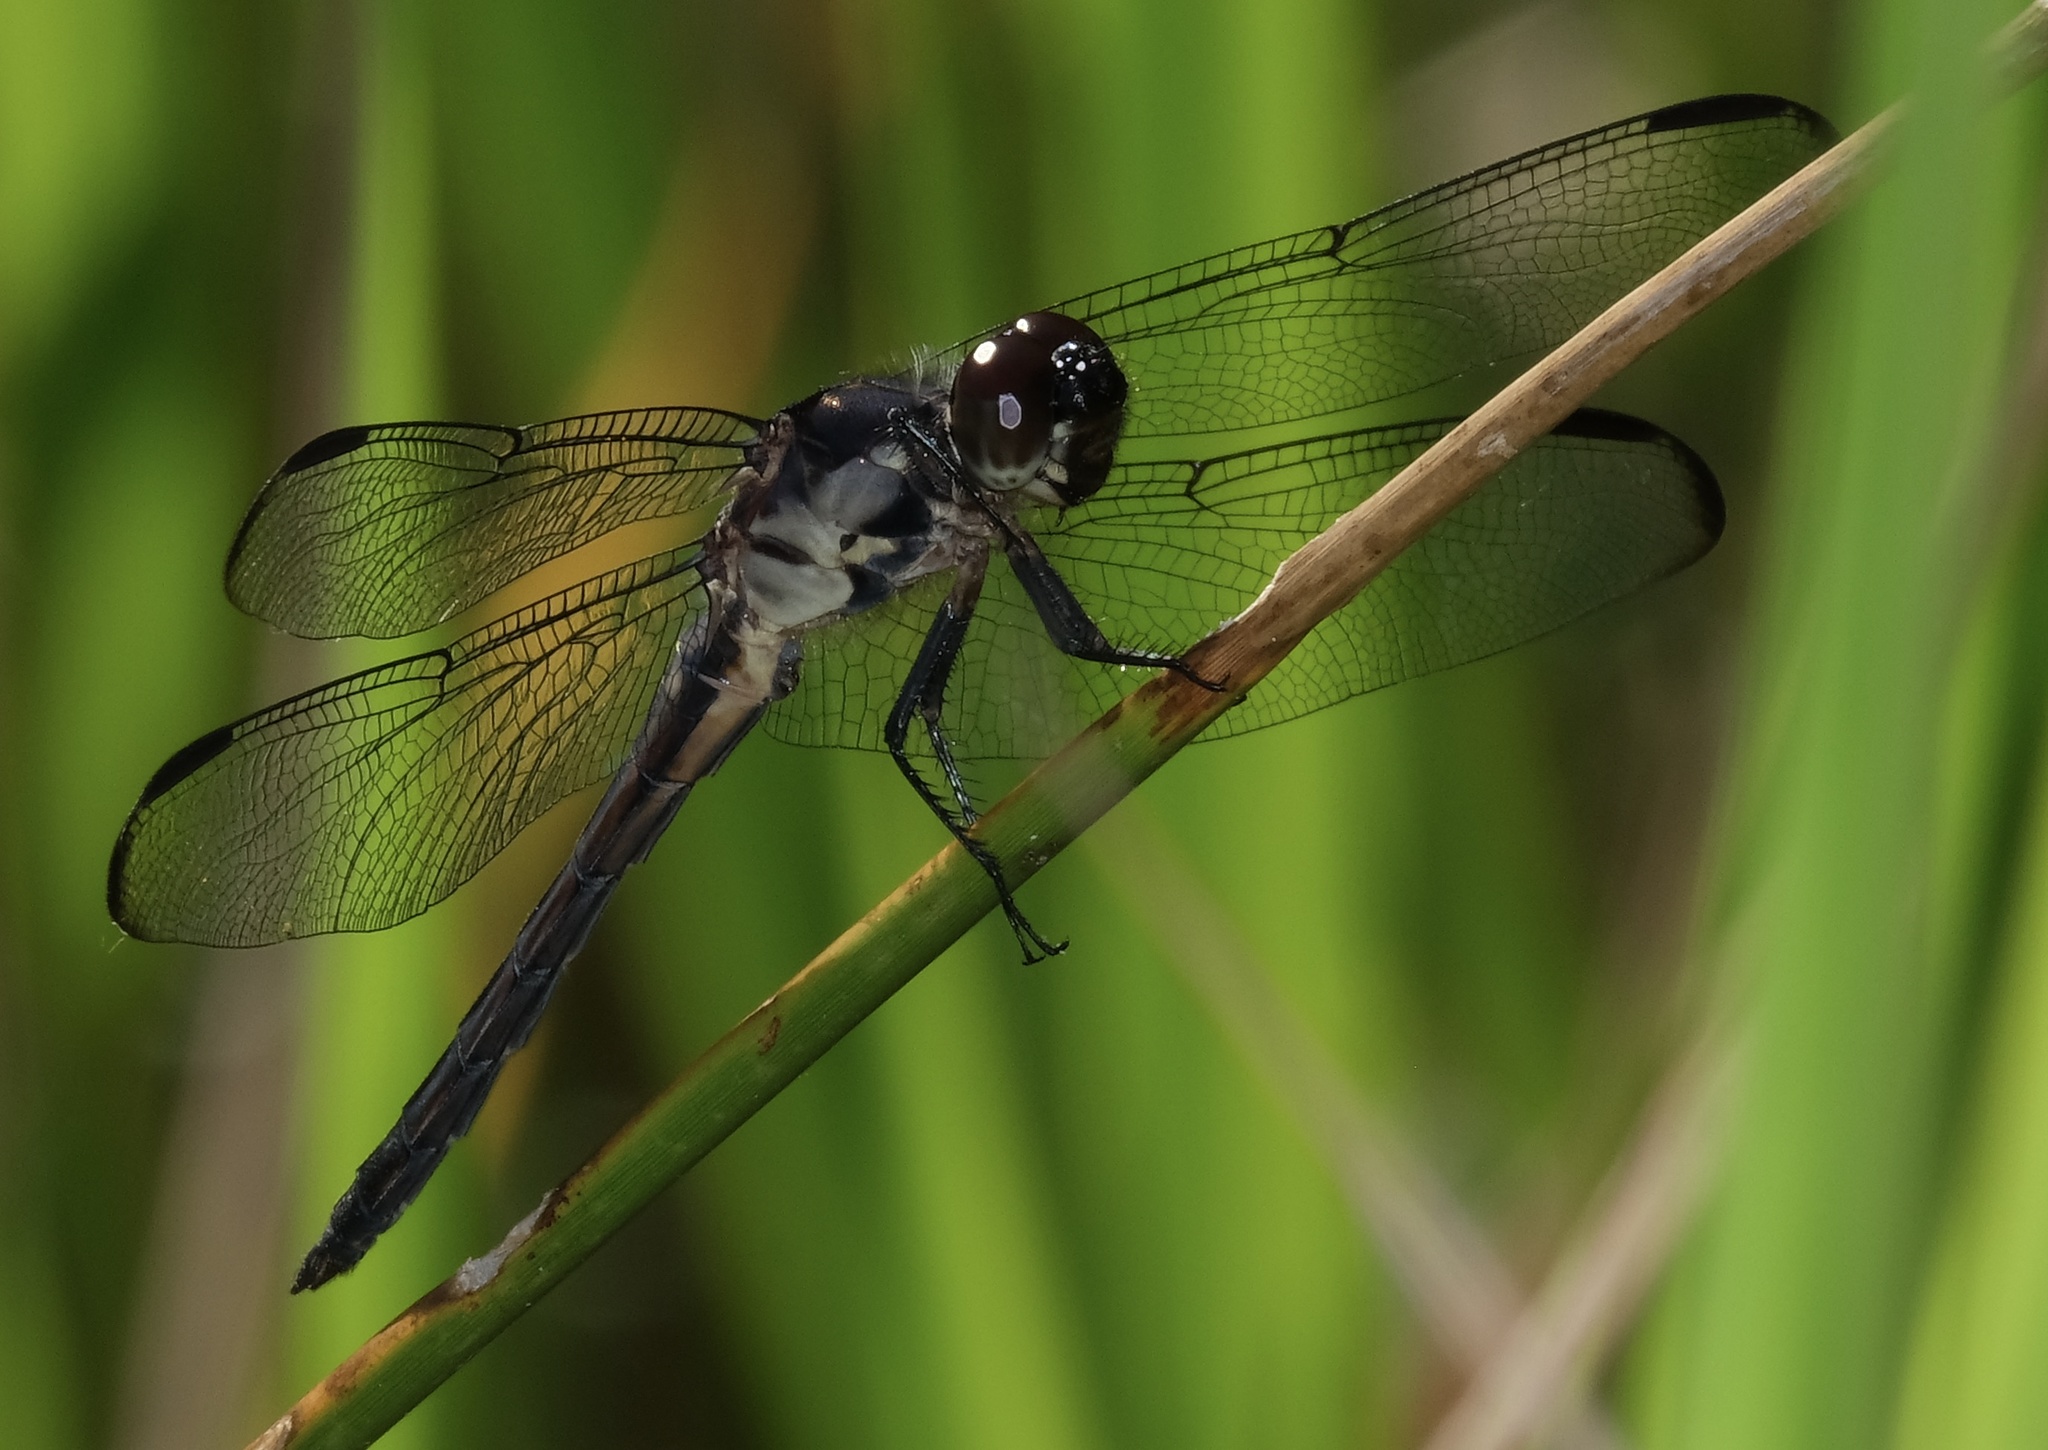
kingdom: Animalia
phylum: Arthropoda
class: Insecta
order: Odonata
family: Libellulidae
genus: Libellula
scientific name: Libellula incesta
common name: Slaty skimmer
